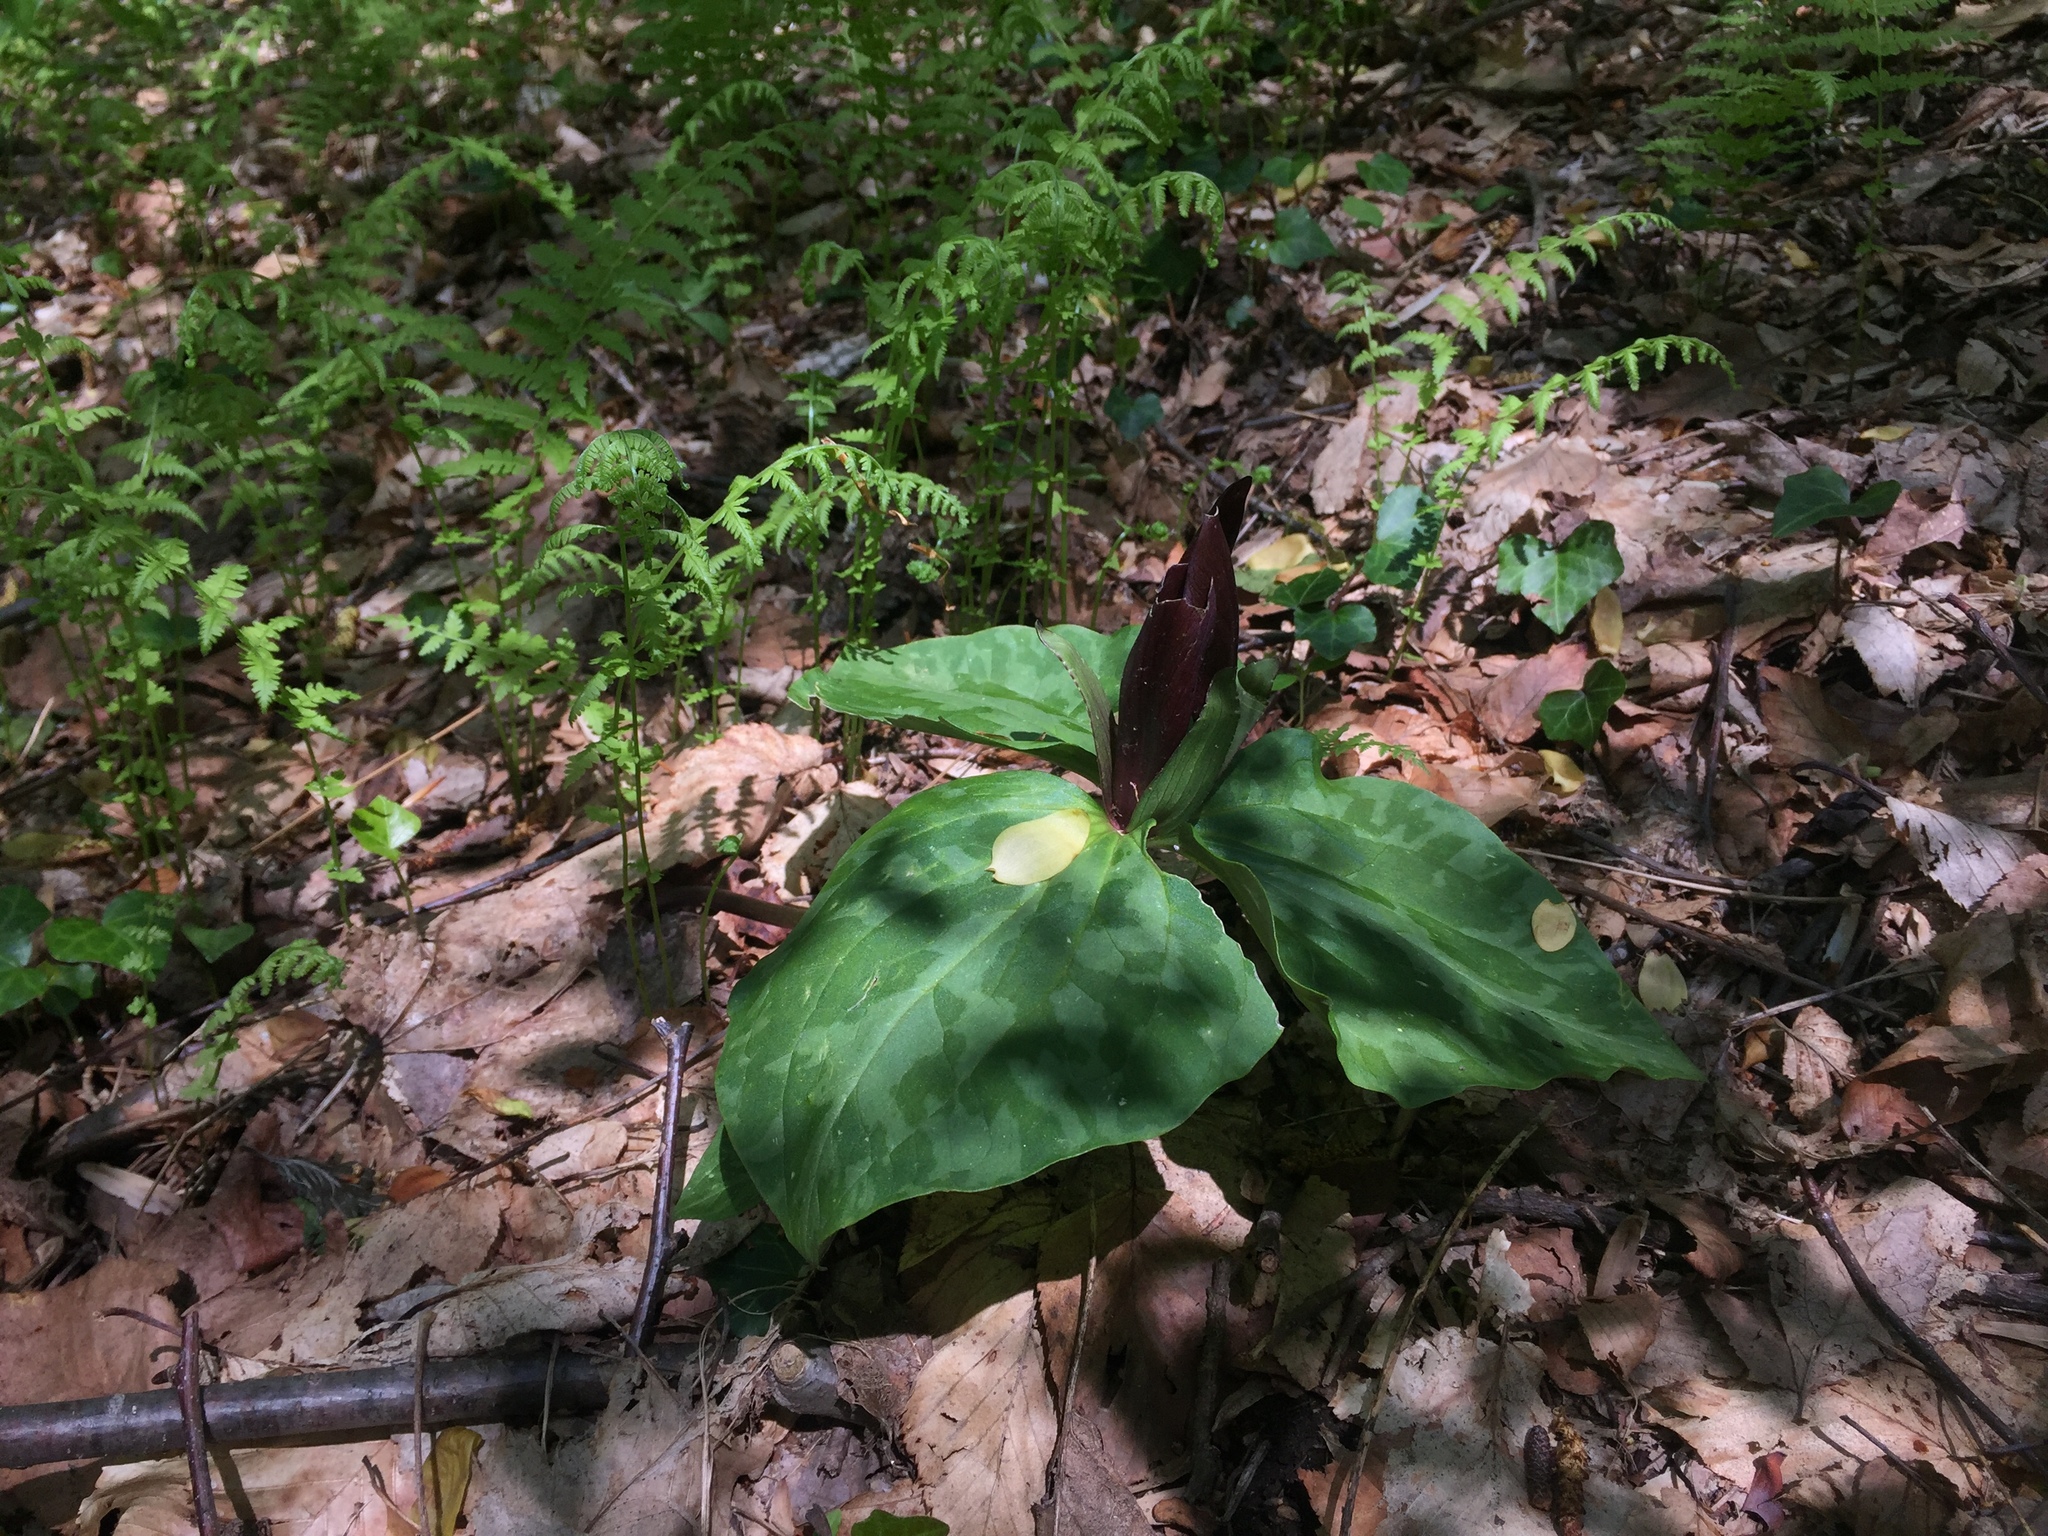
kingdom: Plantae
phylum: Tracheophyta
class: Liliopsida
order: Liliales
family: Melanthiaceae
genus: Trillium
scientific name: Trillium cuneatum
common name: Cuneate trillium
